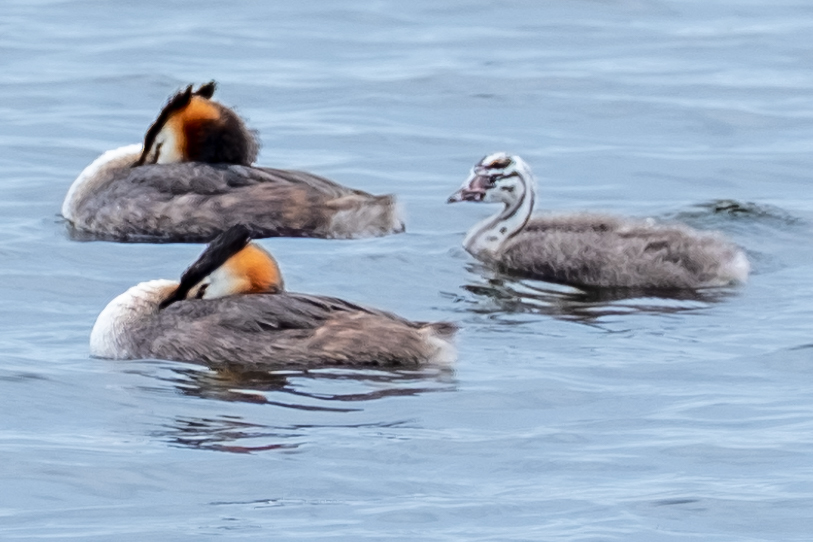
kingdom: Animalia
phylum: Chordata
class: Aves
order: Podicipediformes
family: Podicipedidae
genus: Podiceps
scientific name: Podiceps cristatus
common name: Great crested grebe
